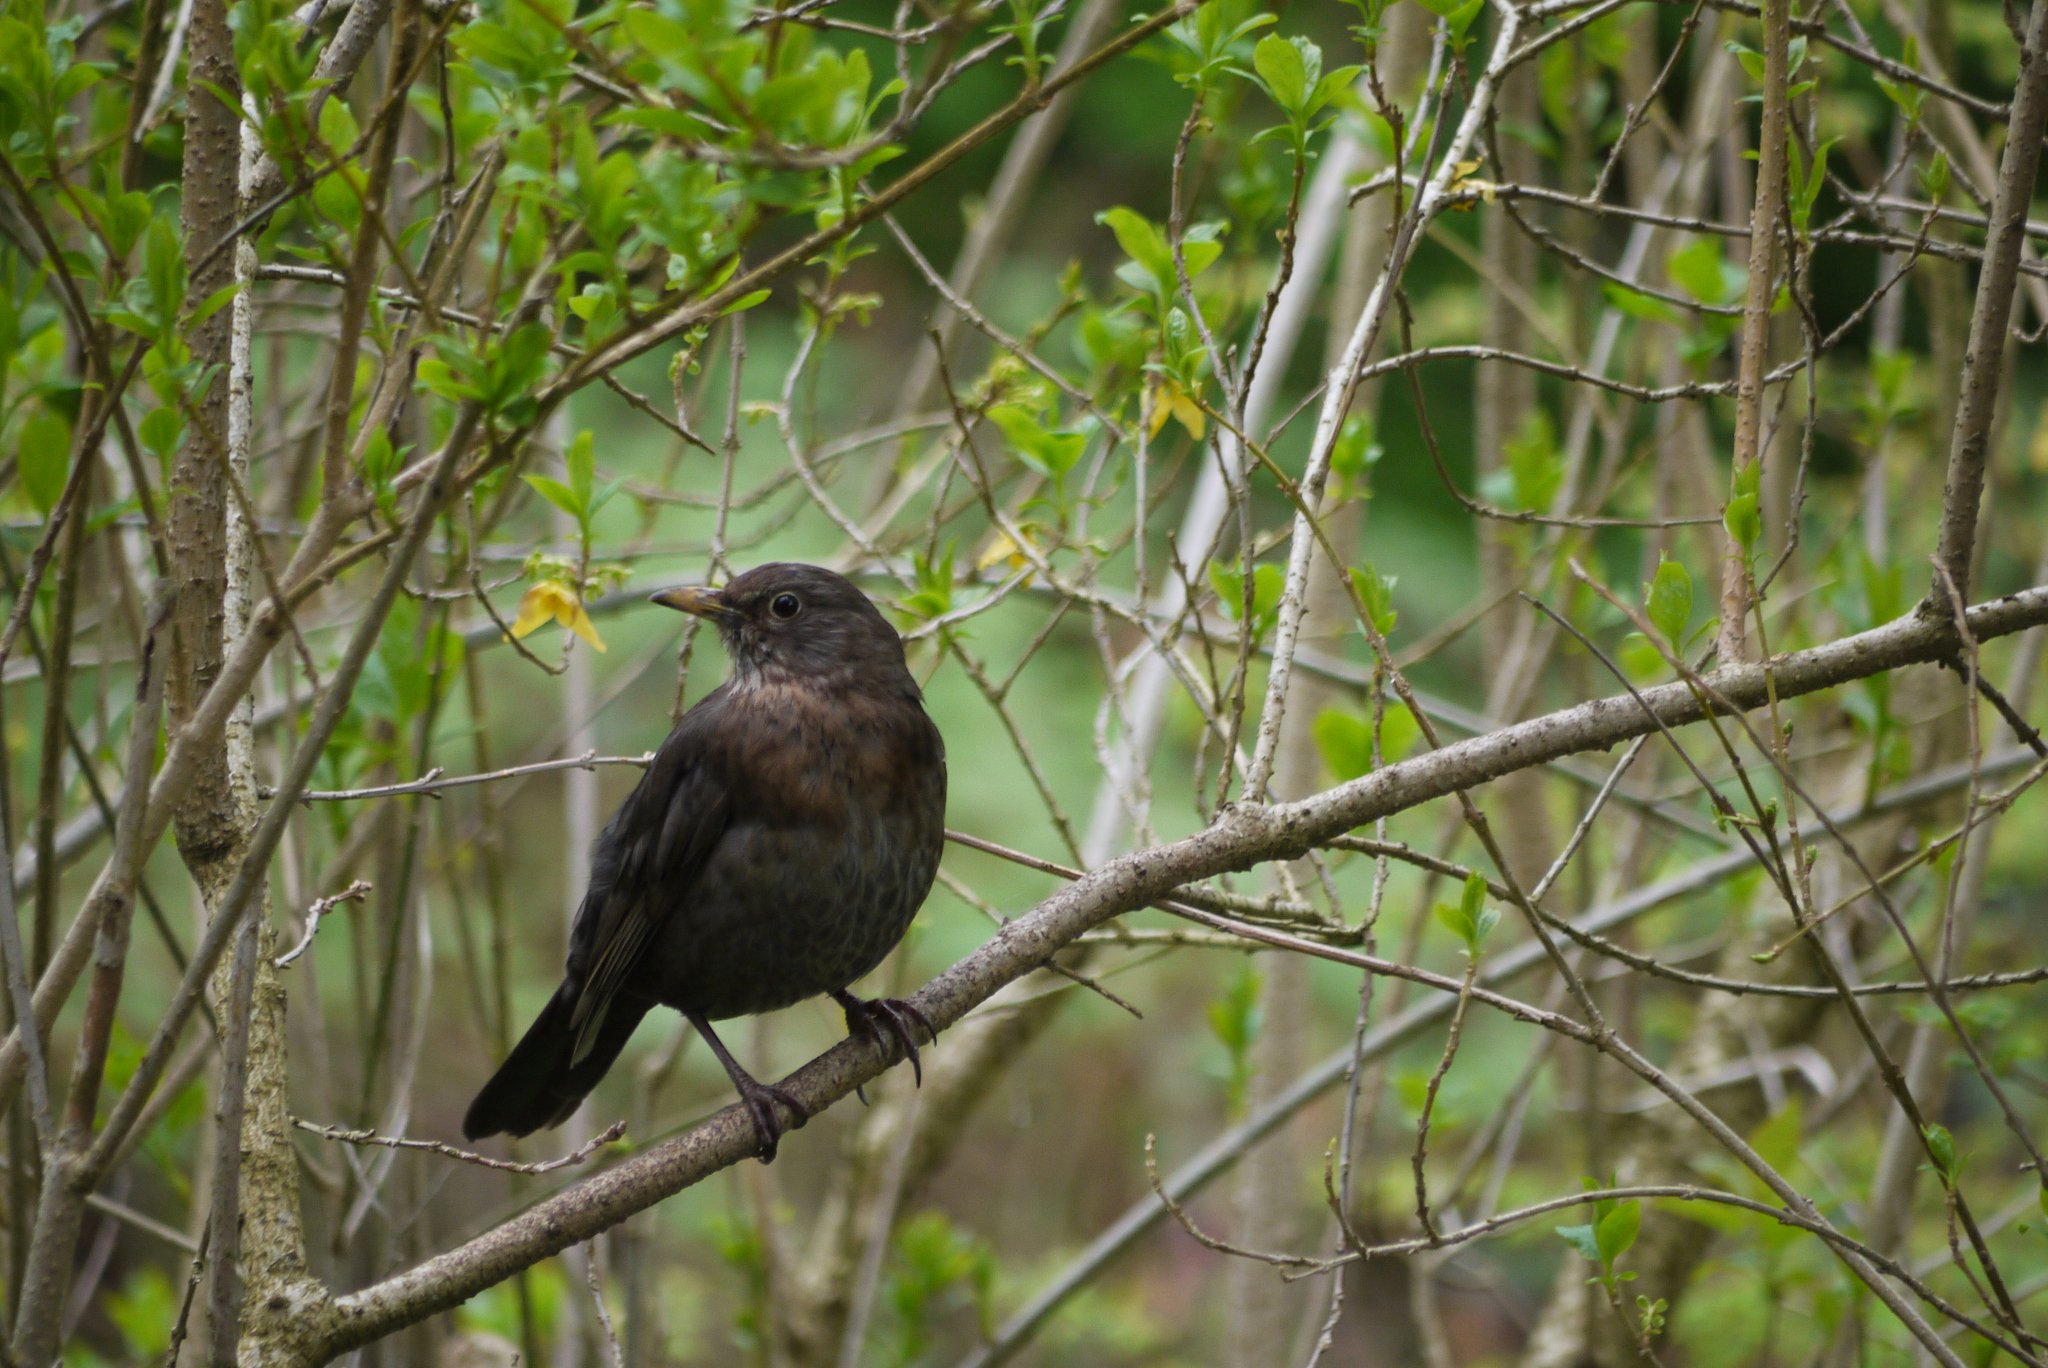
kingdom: Animalia
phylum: Chordata
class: Aves
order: Passeriformes
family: Turdidae
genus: Turdus
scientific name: Turdus merula
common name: Common blackbird
